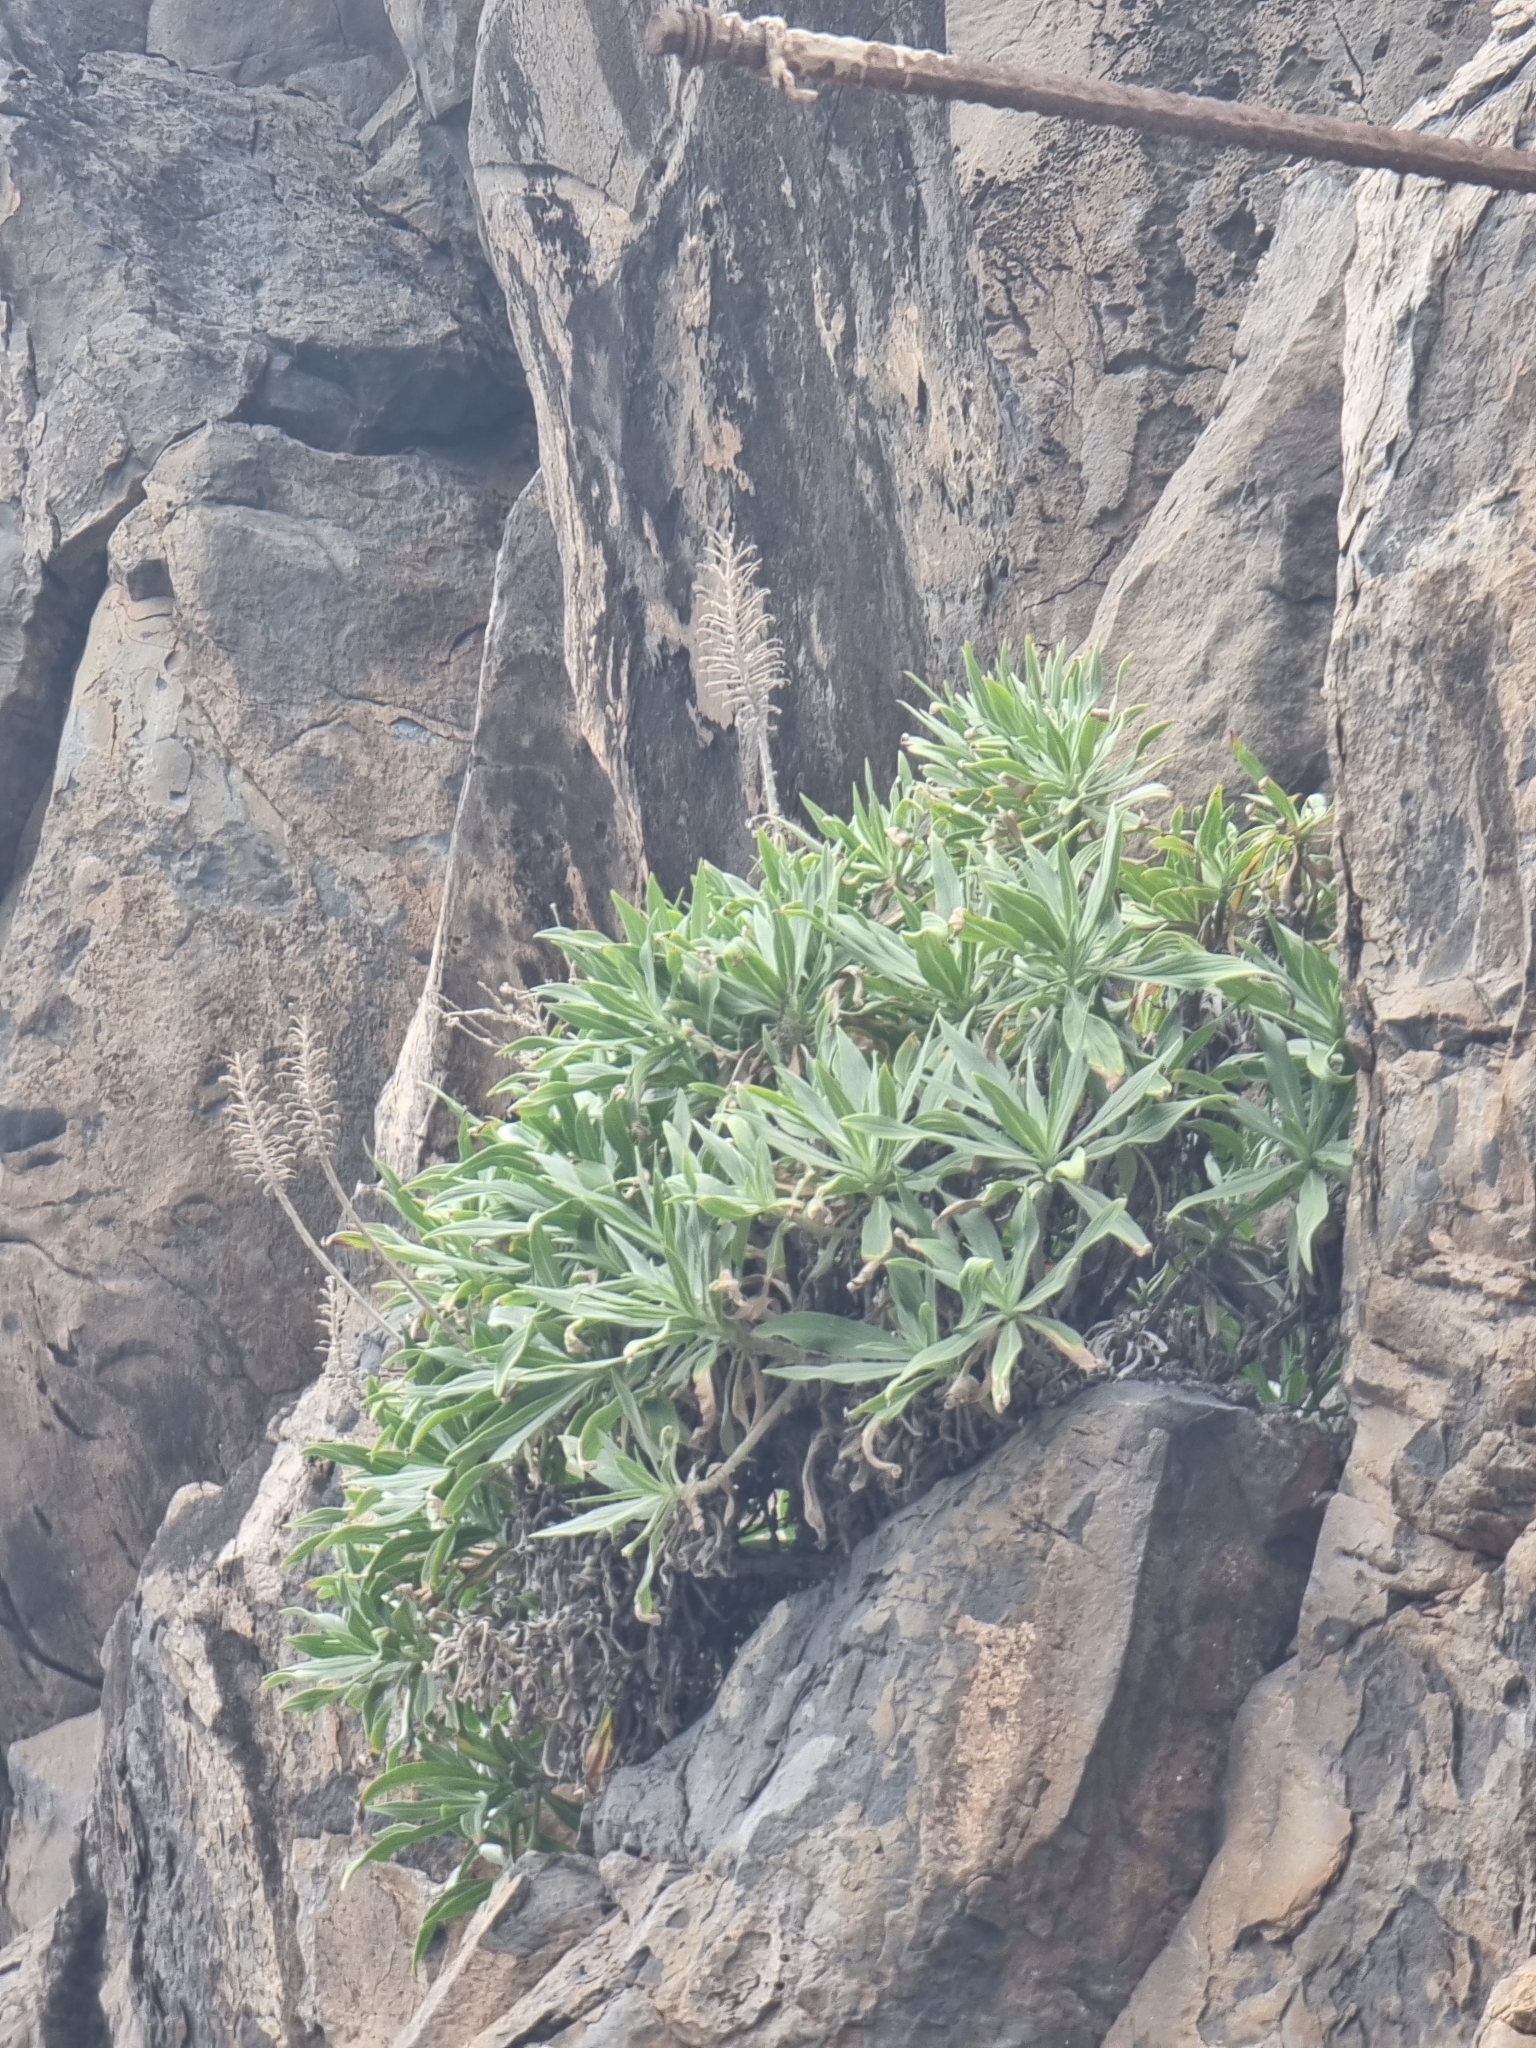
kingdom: Plantae
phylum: Tracheophyta
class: Magnoliopsida
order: Boraginales
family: Boraginaceae
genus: Echium
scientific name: Echium nervosum
